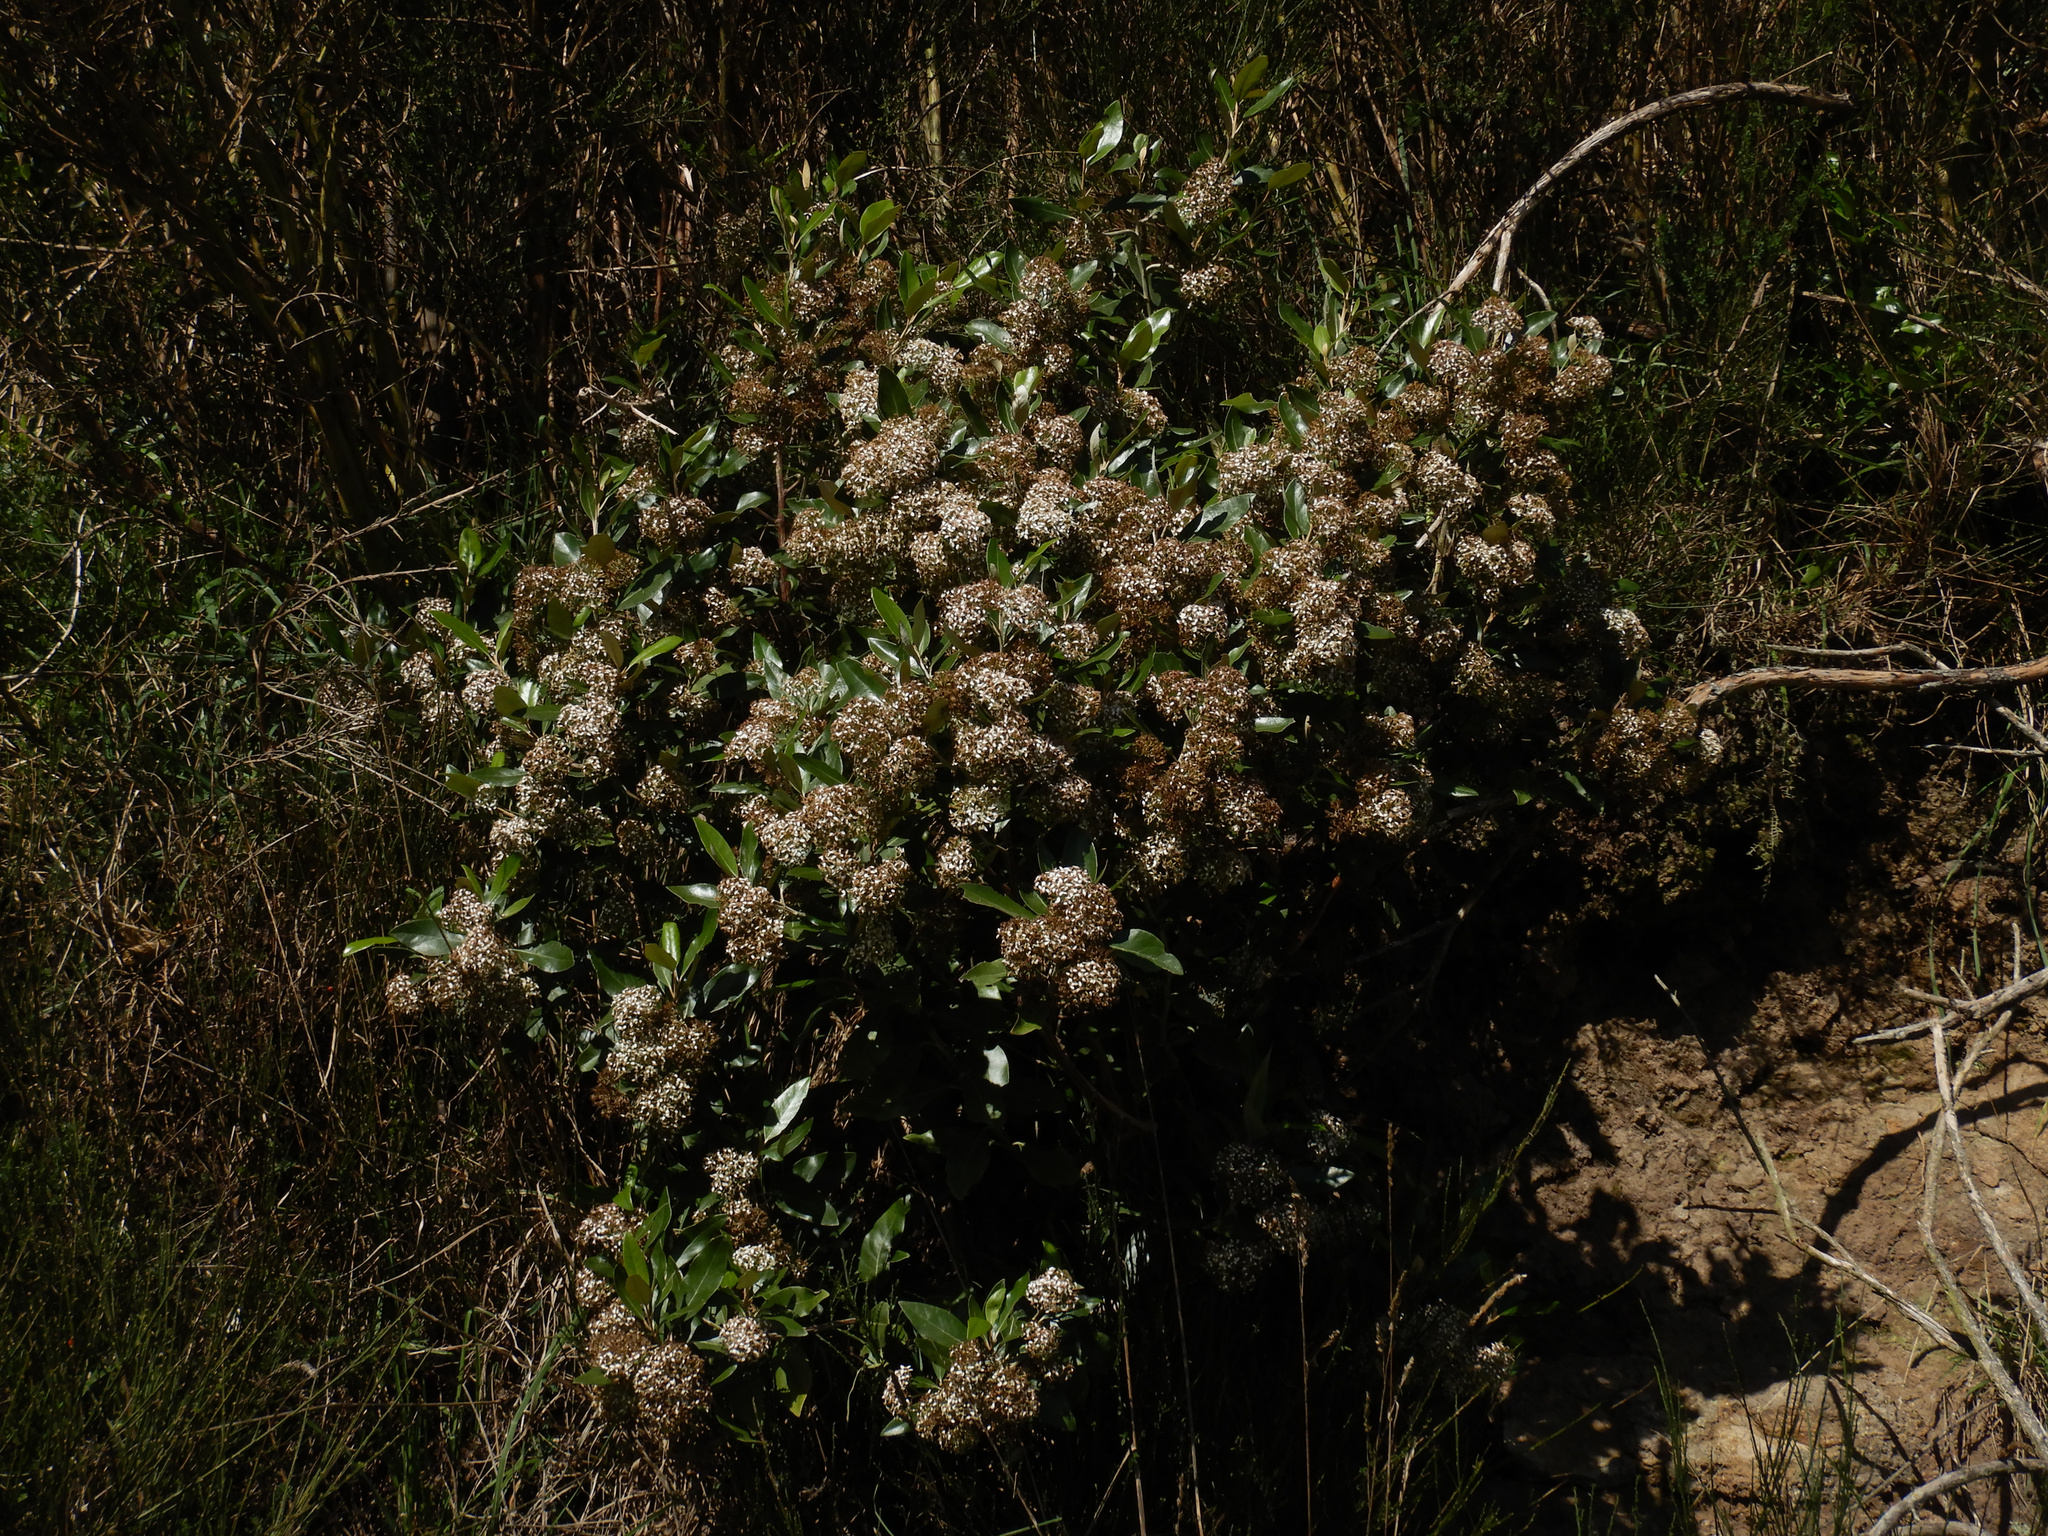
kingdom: Plantae
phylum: Tracheophyta
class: Magnoliopsida
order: Asterales
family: Asteraceae
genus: Olearia
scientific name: Olearia avicenniifolia
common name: Mangrove-leaf daisybush
